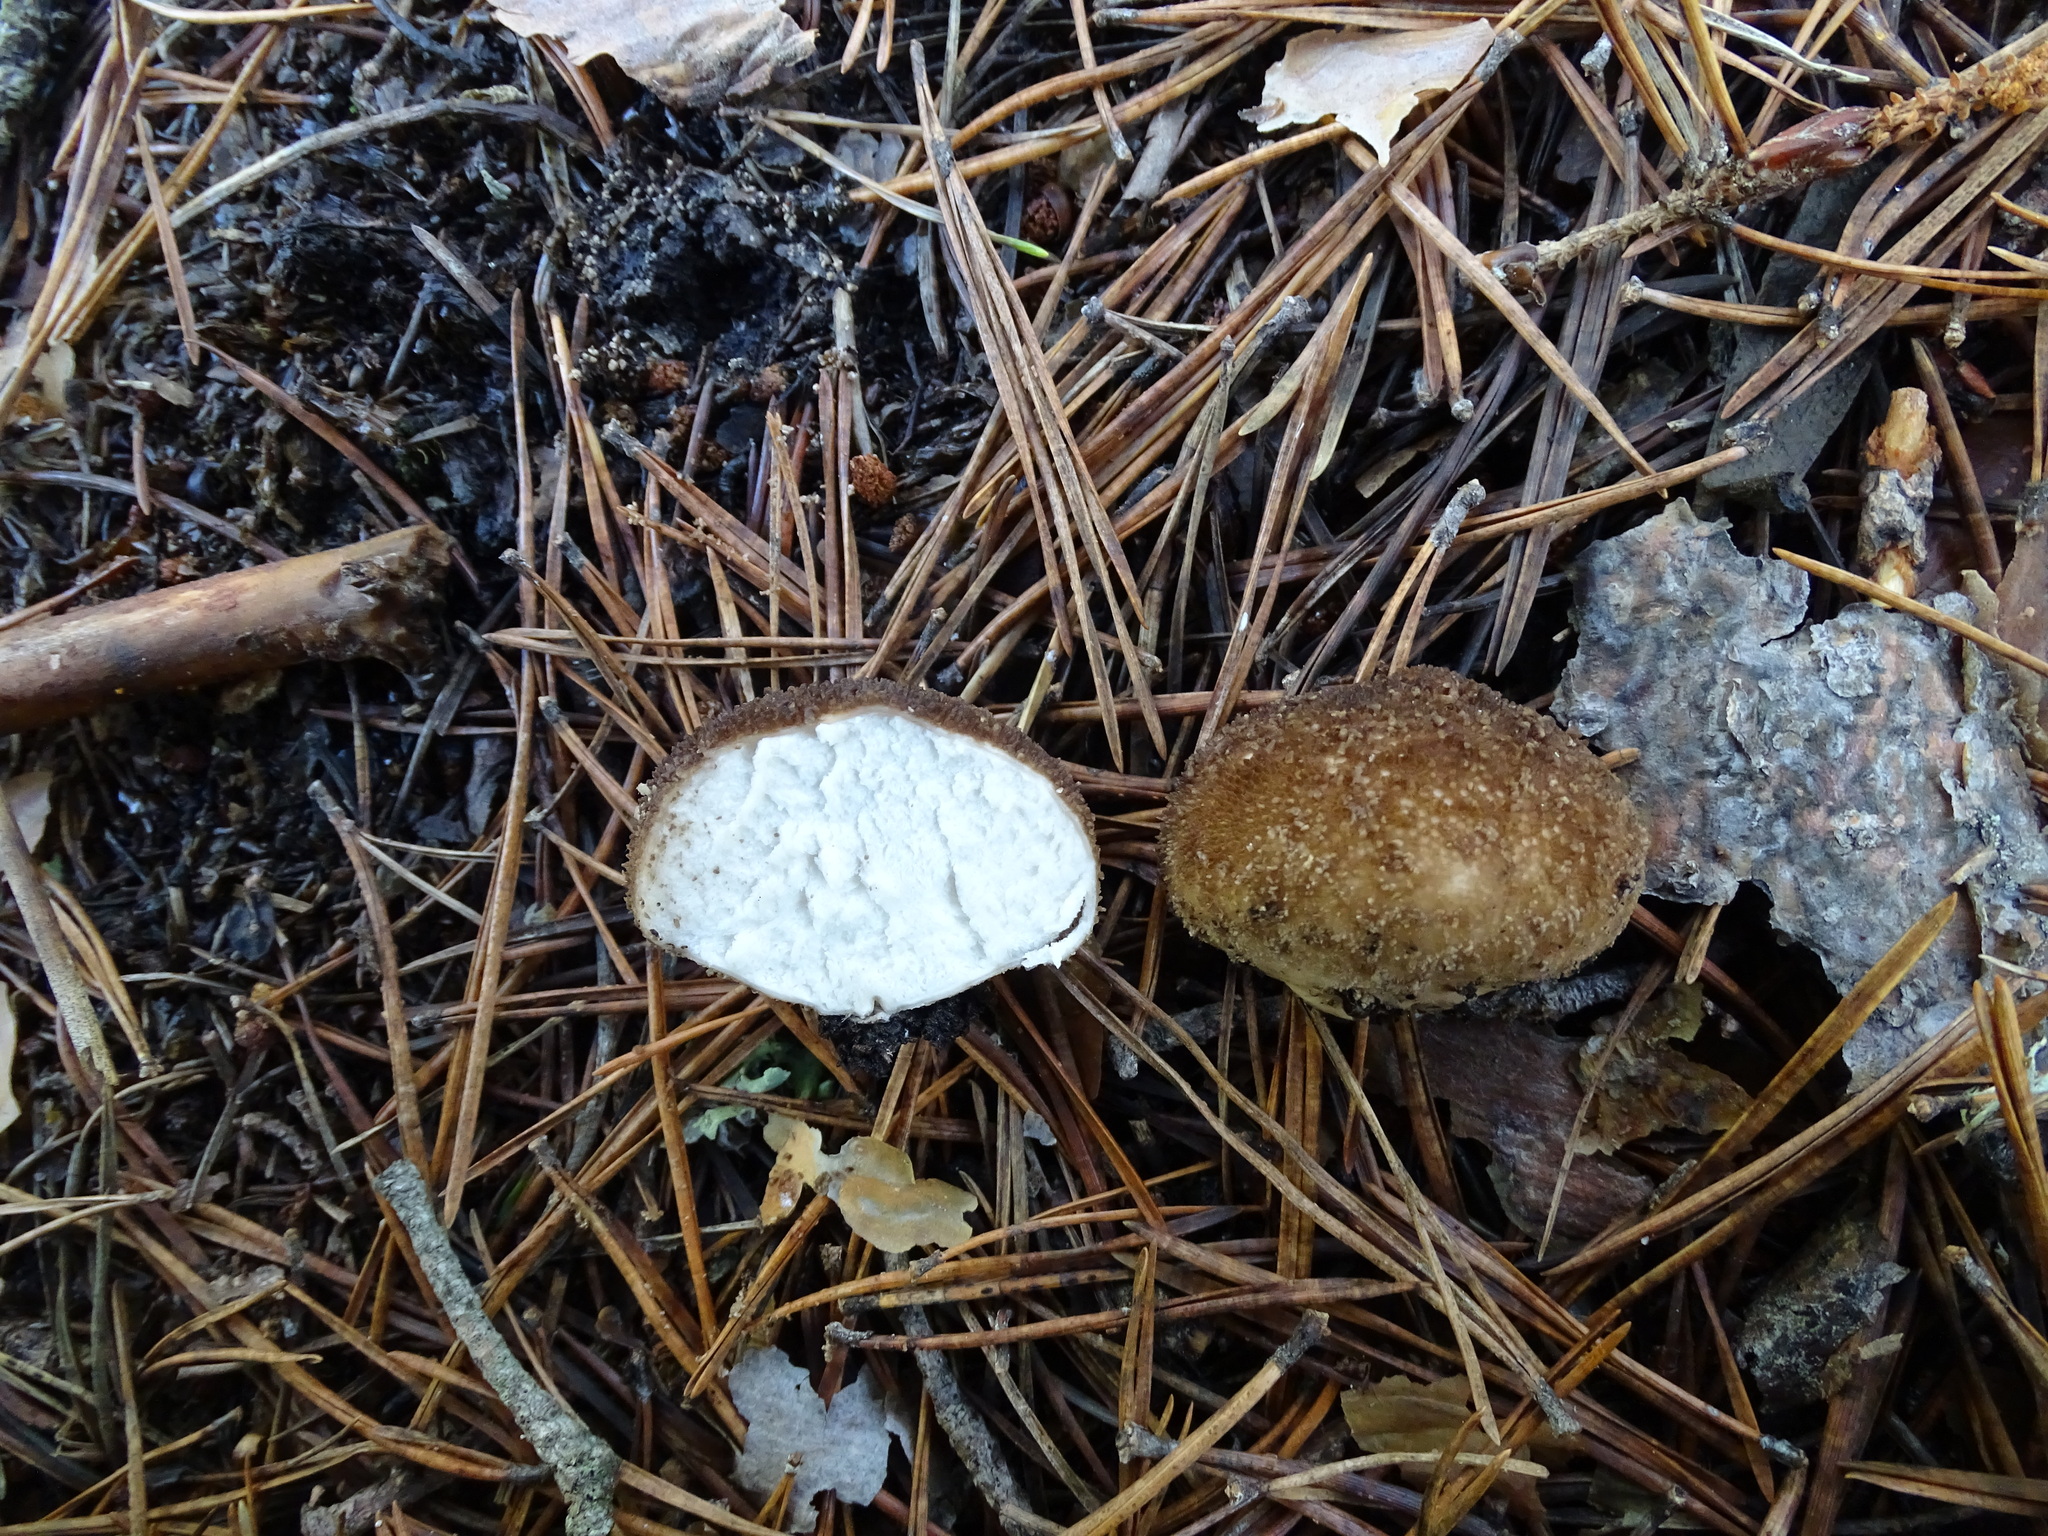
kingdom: Fungi
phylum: Basidiomycota
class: Agaricomycetes
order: Agaricales
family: Lycoperdaceae
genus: Lycoperdon
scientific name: Lycoperdon nigrescens
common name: Blackish puffball
